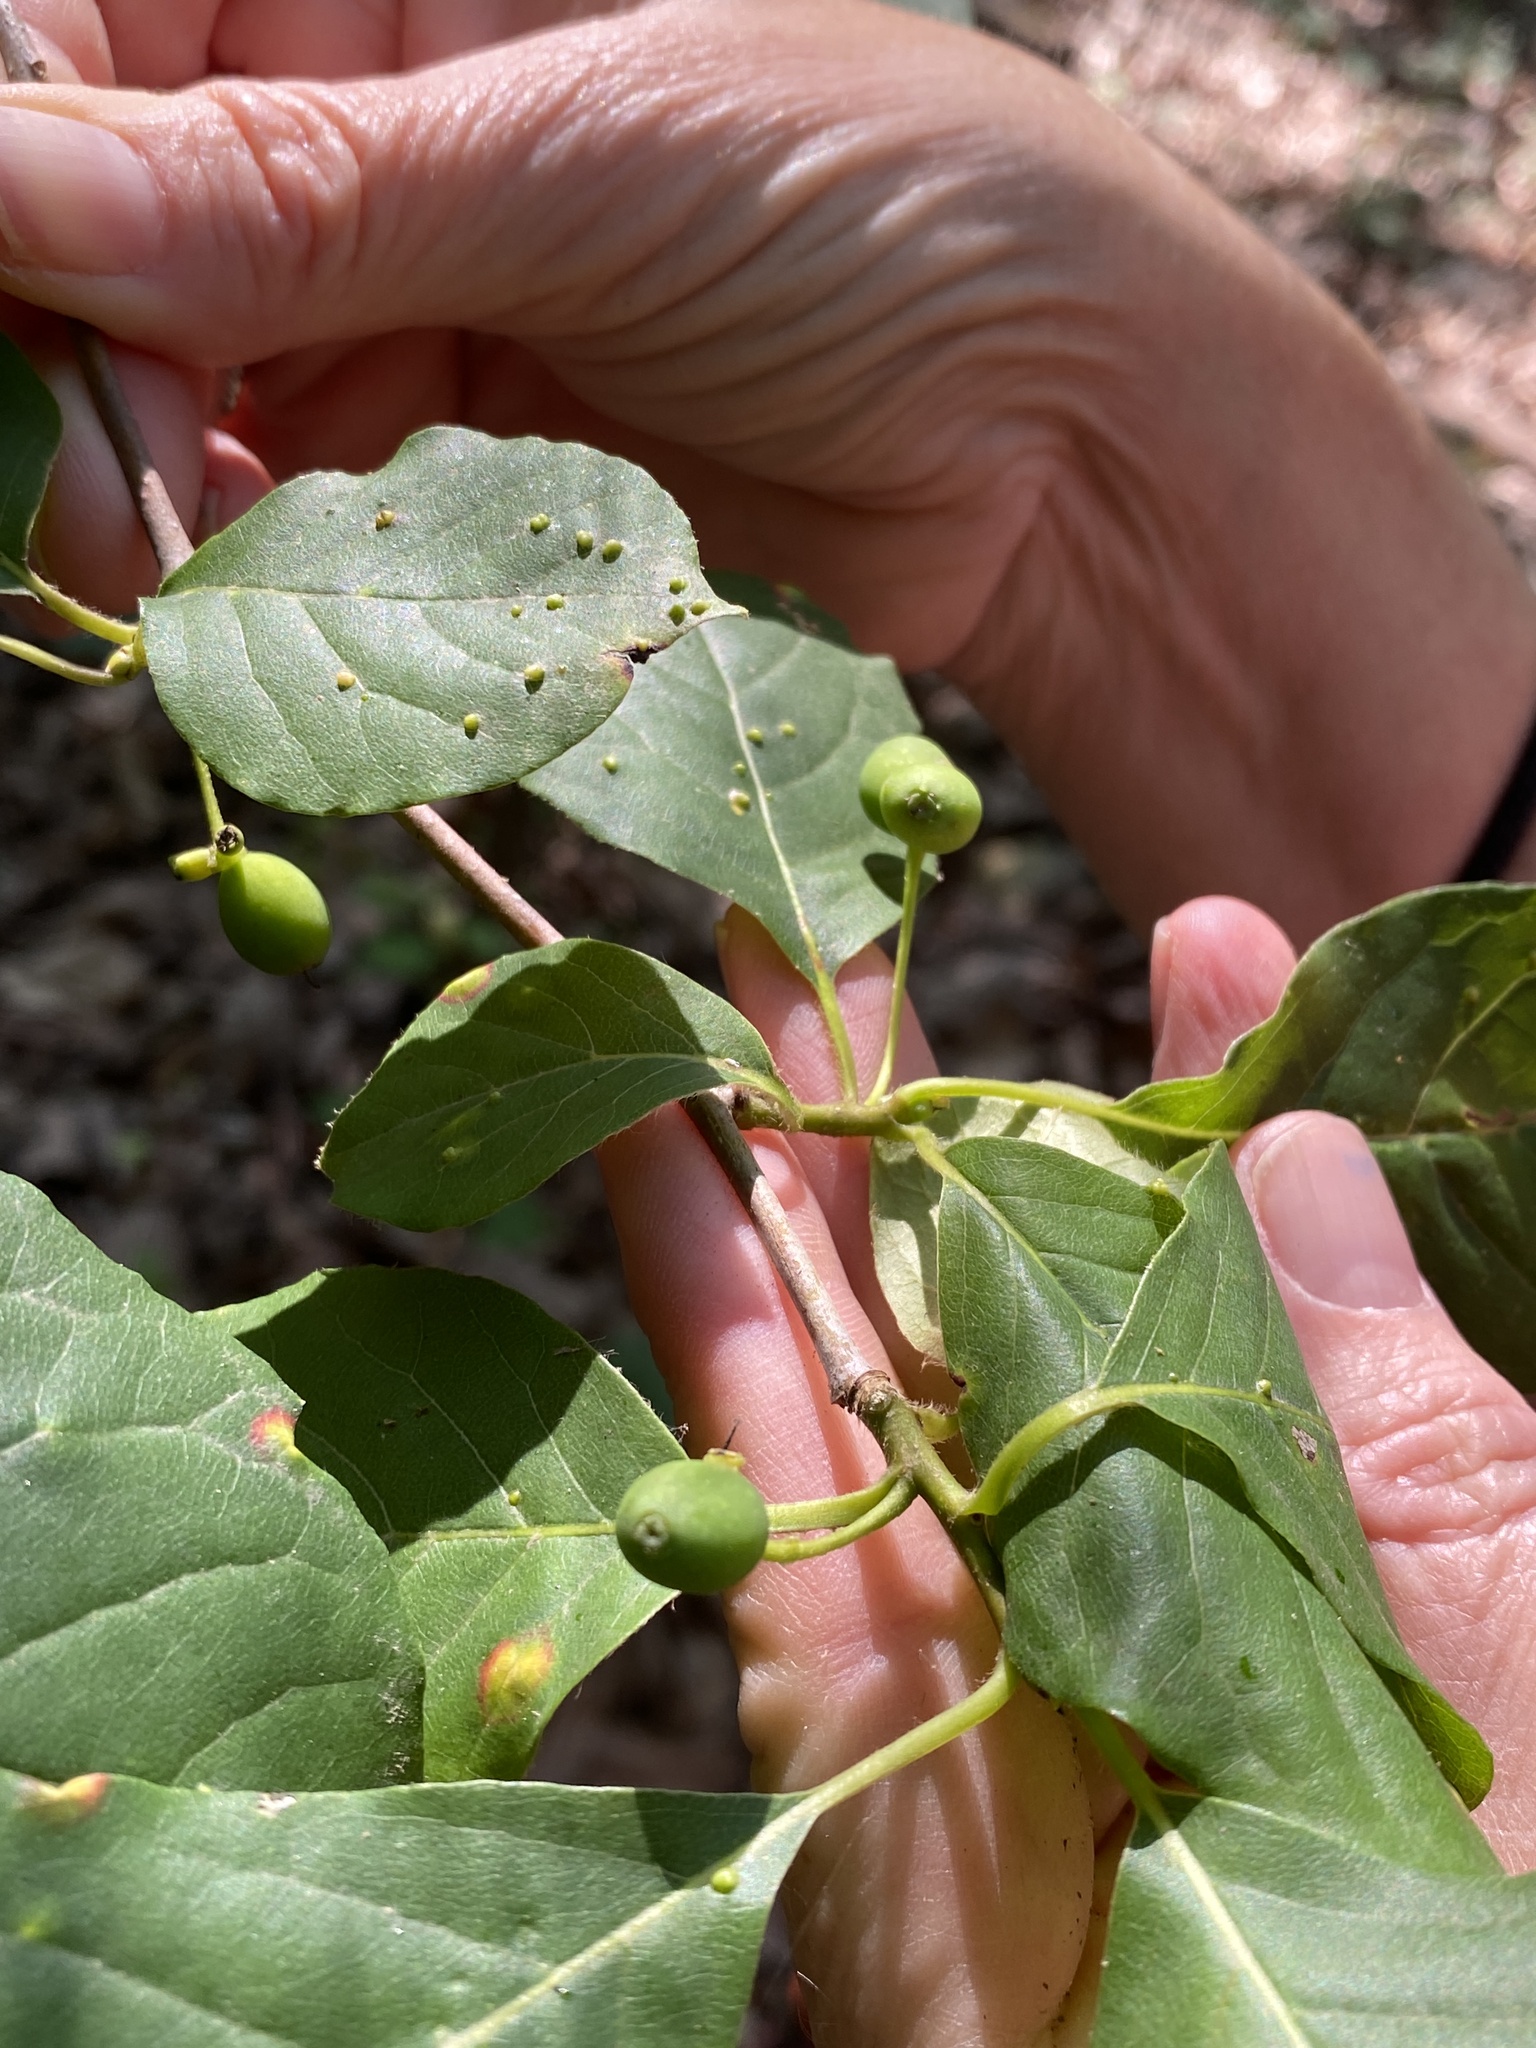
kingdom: Plantae
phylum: Tracheophyta
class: Magnoliopsida
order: Cornales
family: Nyssaceae
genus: Nyssa
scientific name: Nyssa sylvatica
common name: Black tupelo
